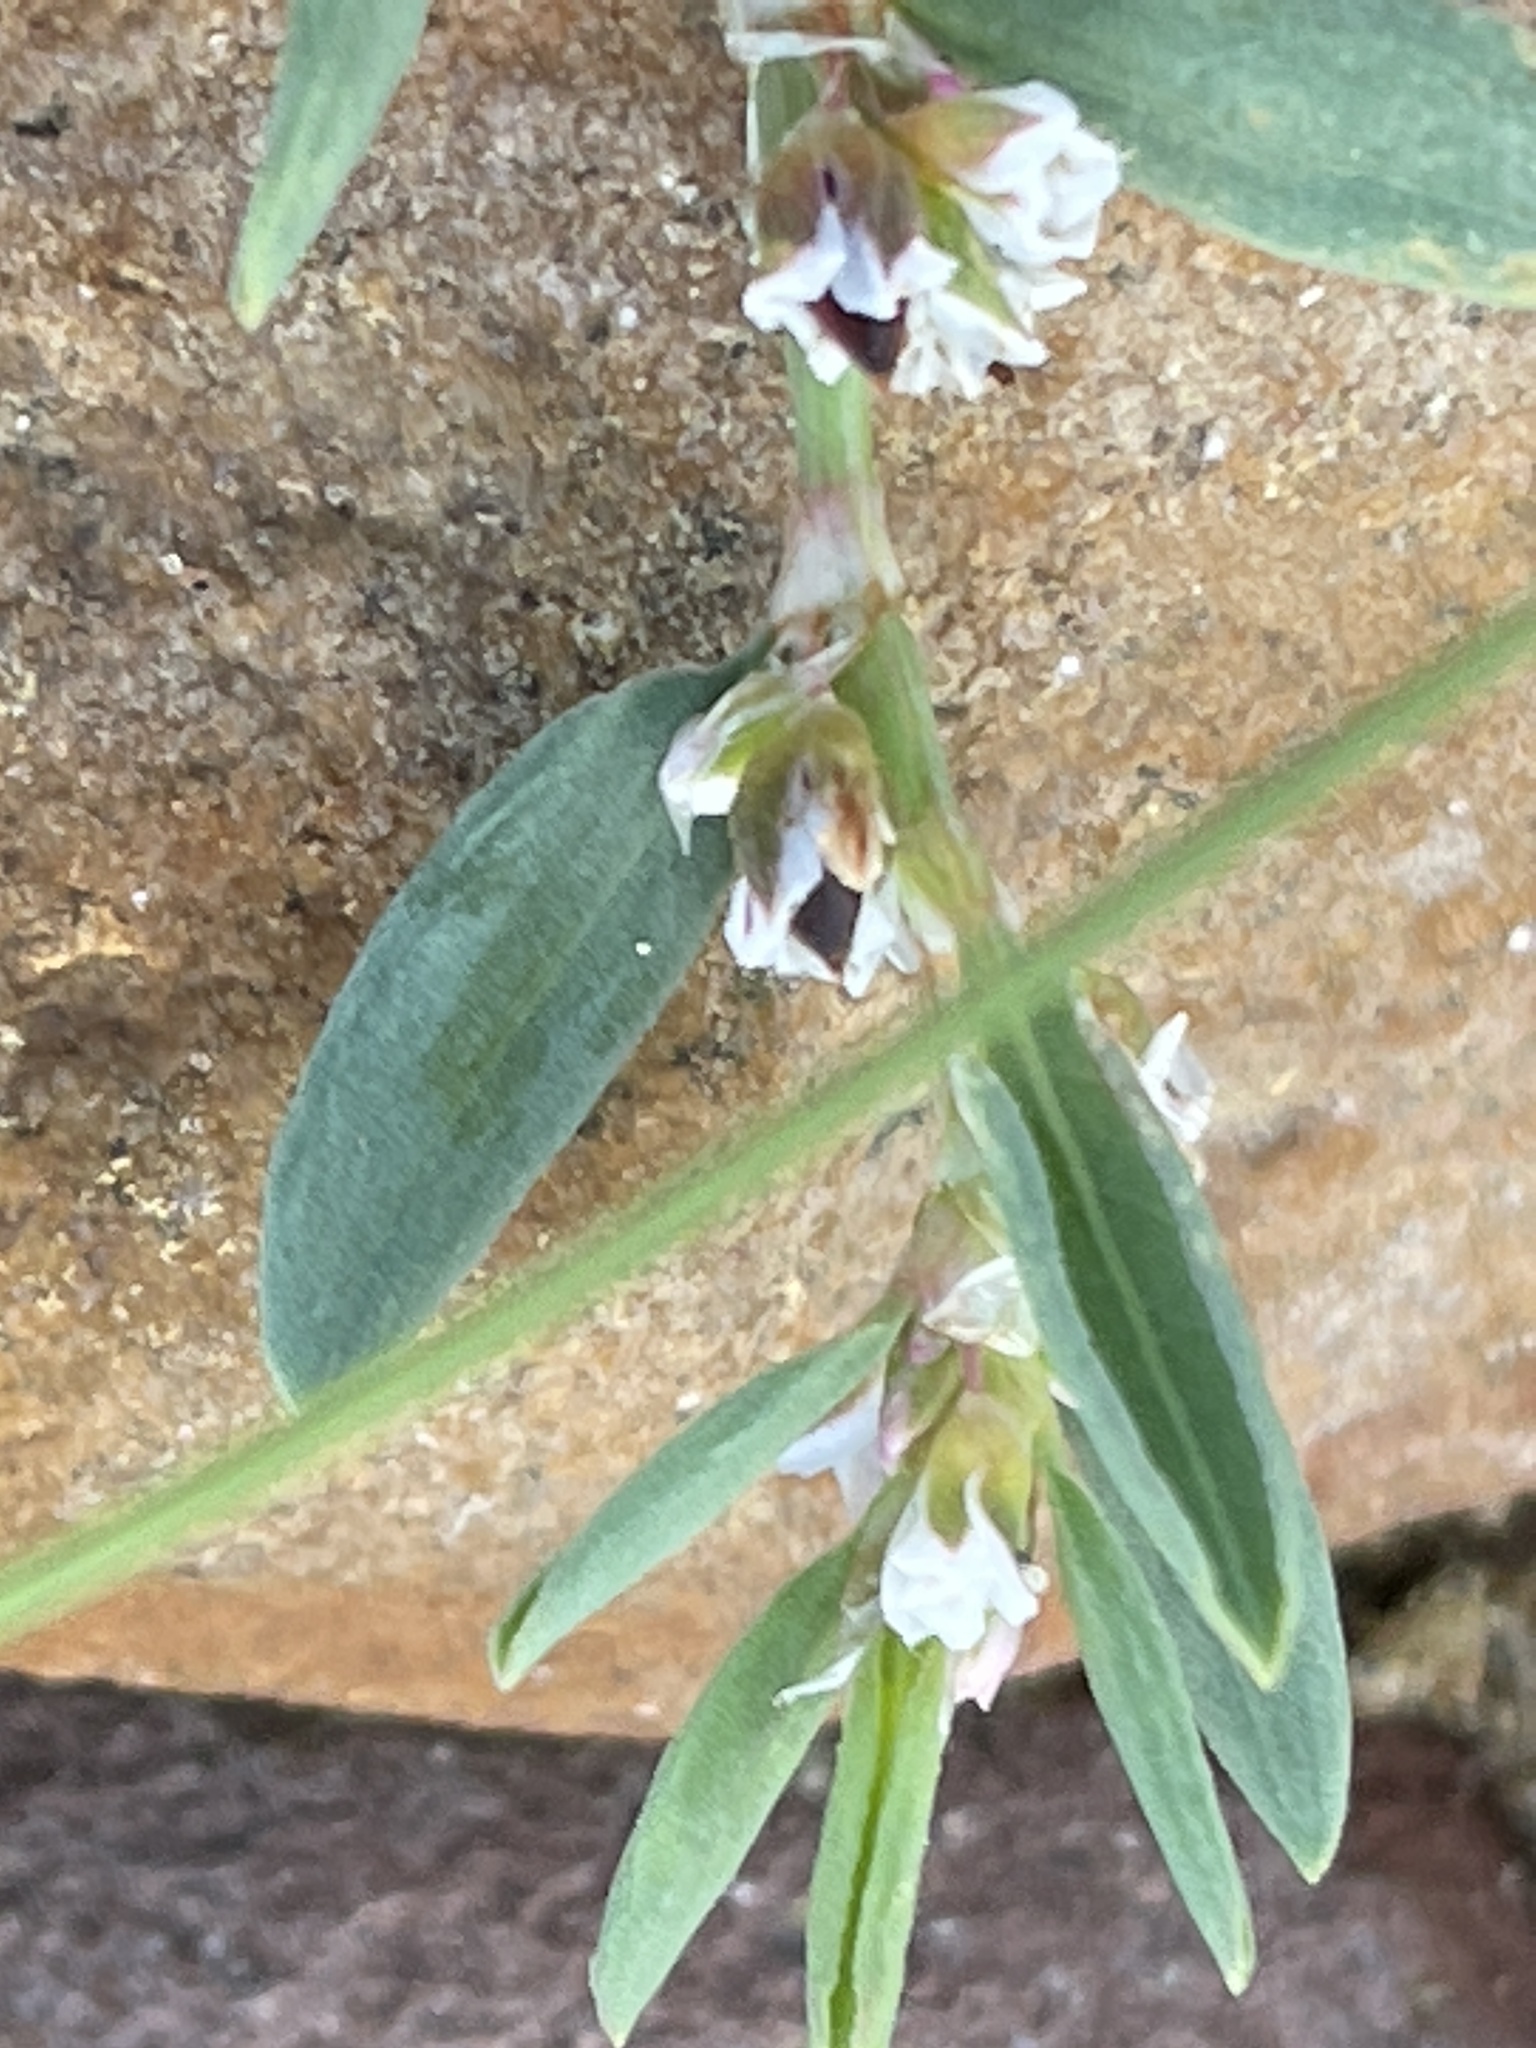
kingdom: Plantae
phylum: Tracheophyta
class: Magnoliopsida
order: Caryophyllales
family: Polygonaceae
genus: Polygonum
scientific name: Polygonum raii
